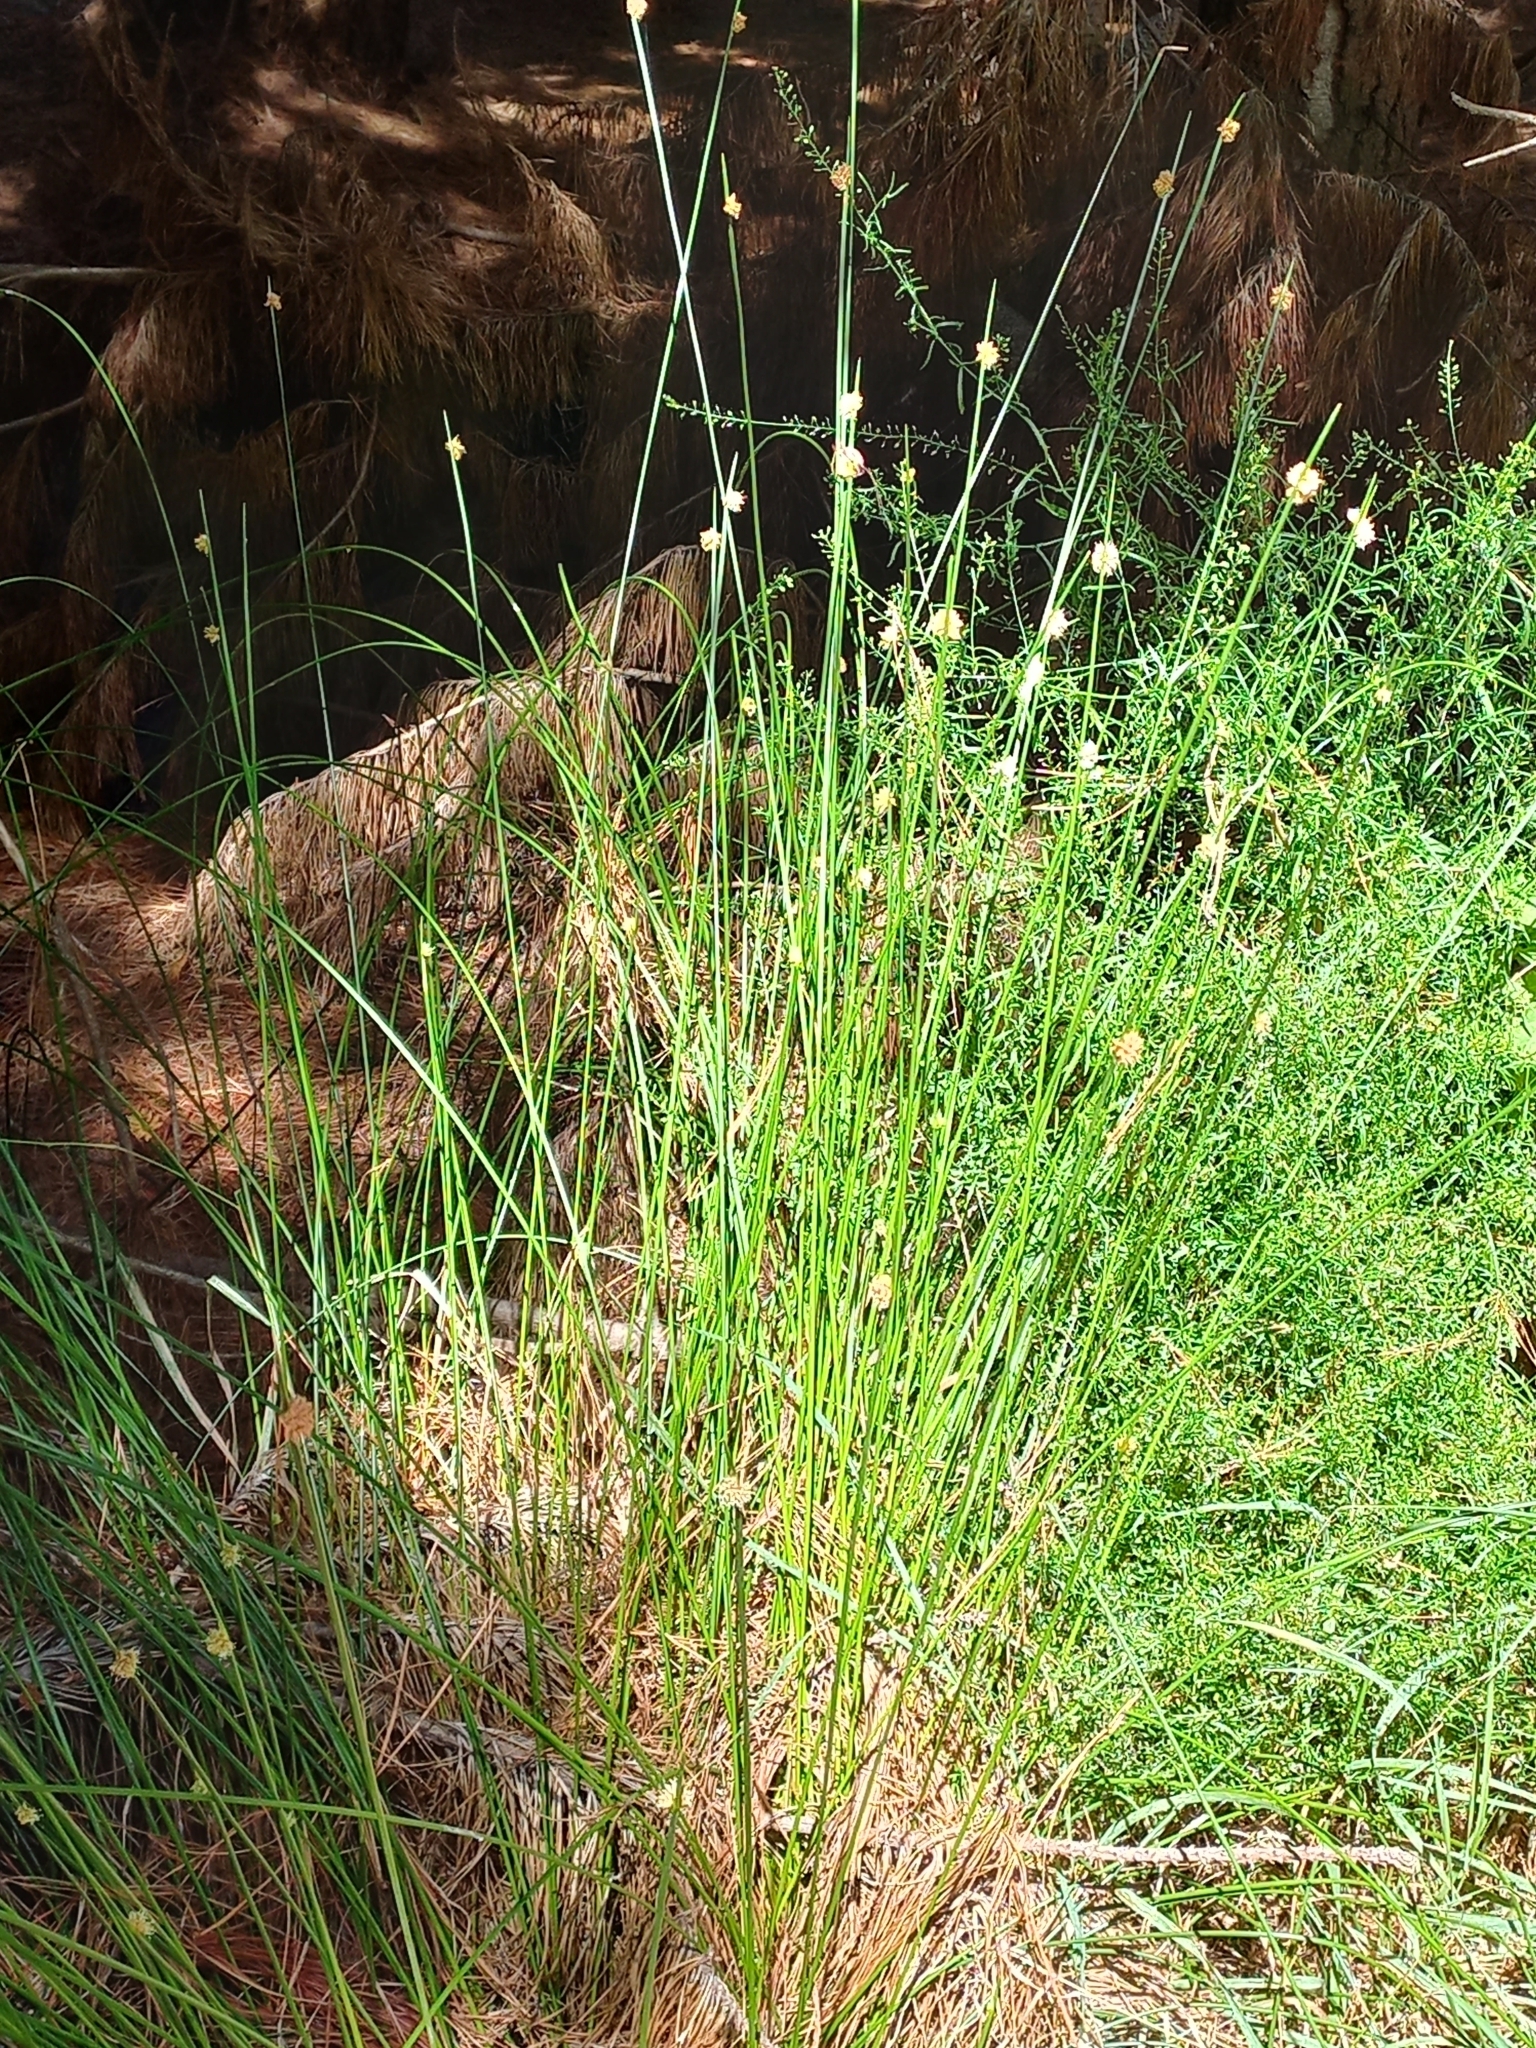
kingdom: Plantae
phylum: Tracheophyta
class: Liliopsida
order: Poales
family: Cyperaceae
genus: Ficinia
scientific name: Ficinia nodosa
